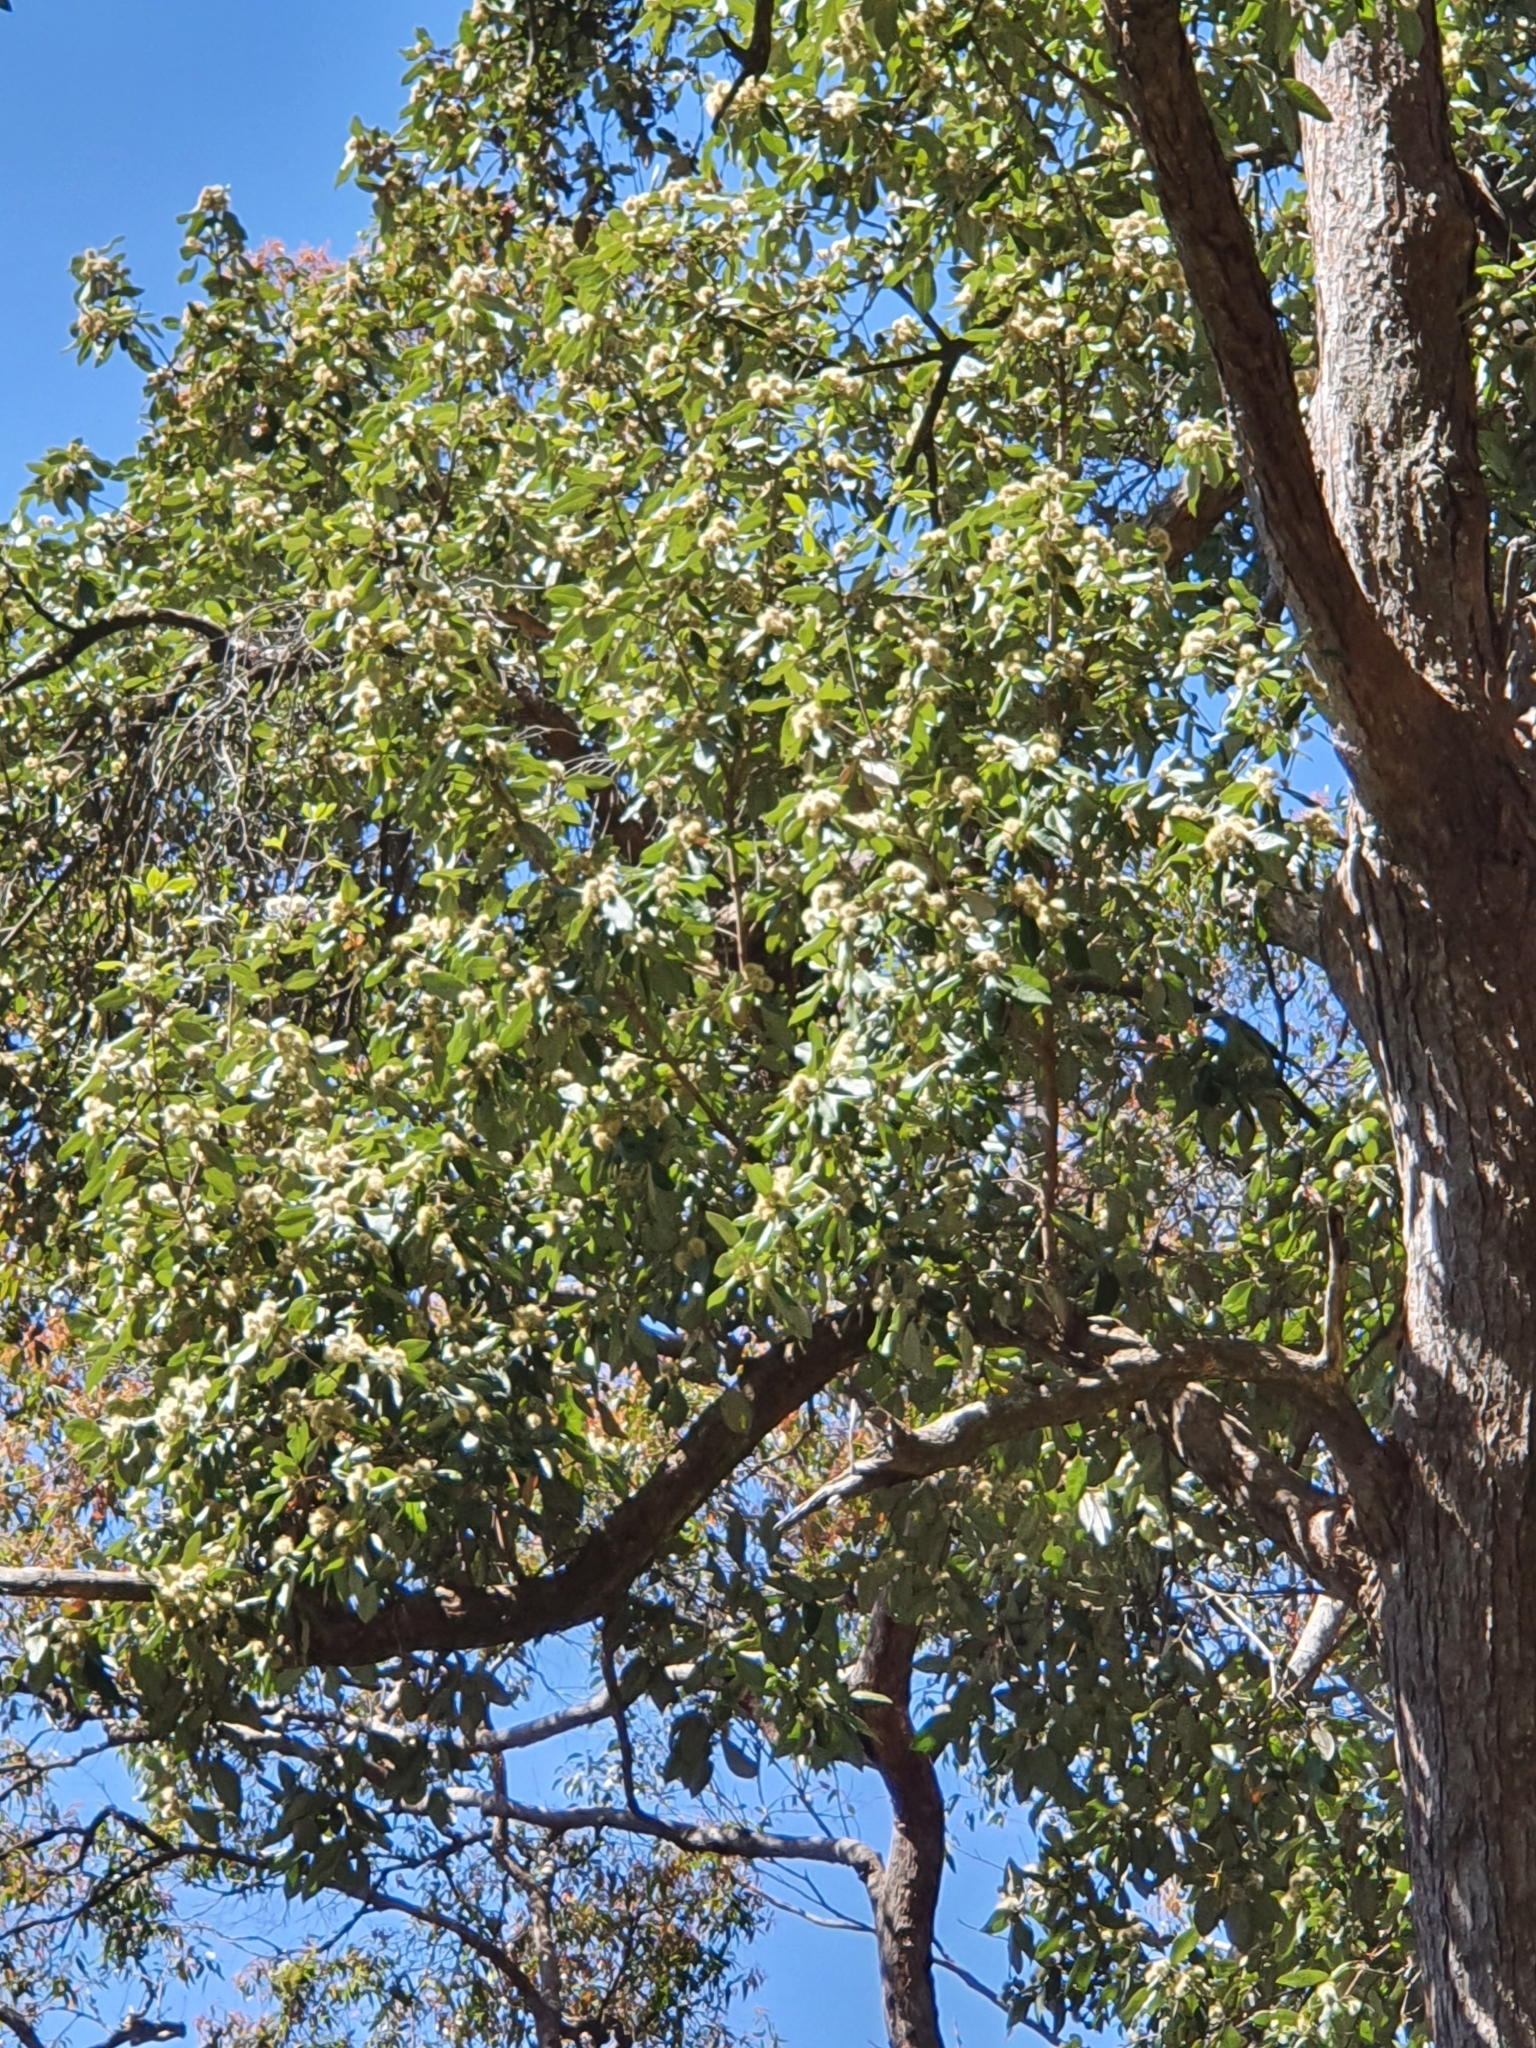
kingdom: Plantae
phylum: Tracheophyta
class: Magnoliopsida
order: Myrtales
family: Myrtaceae
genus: Syncarpia
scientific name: Syncarpia glomulifera
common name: Turpentine tree
